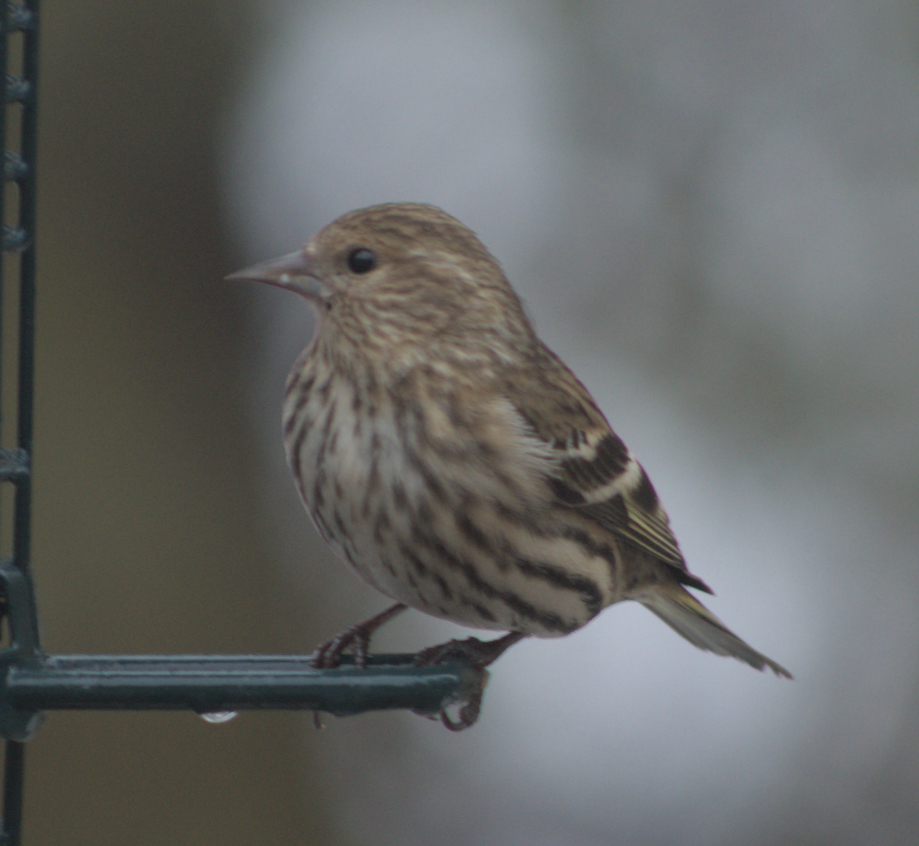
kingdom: Animalia
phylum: Chordata
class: Aves
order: Passeriformes
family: Fringillidae
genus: Spinus
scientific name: Spinus pinus
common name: Pine siskin
